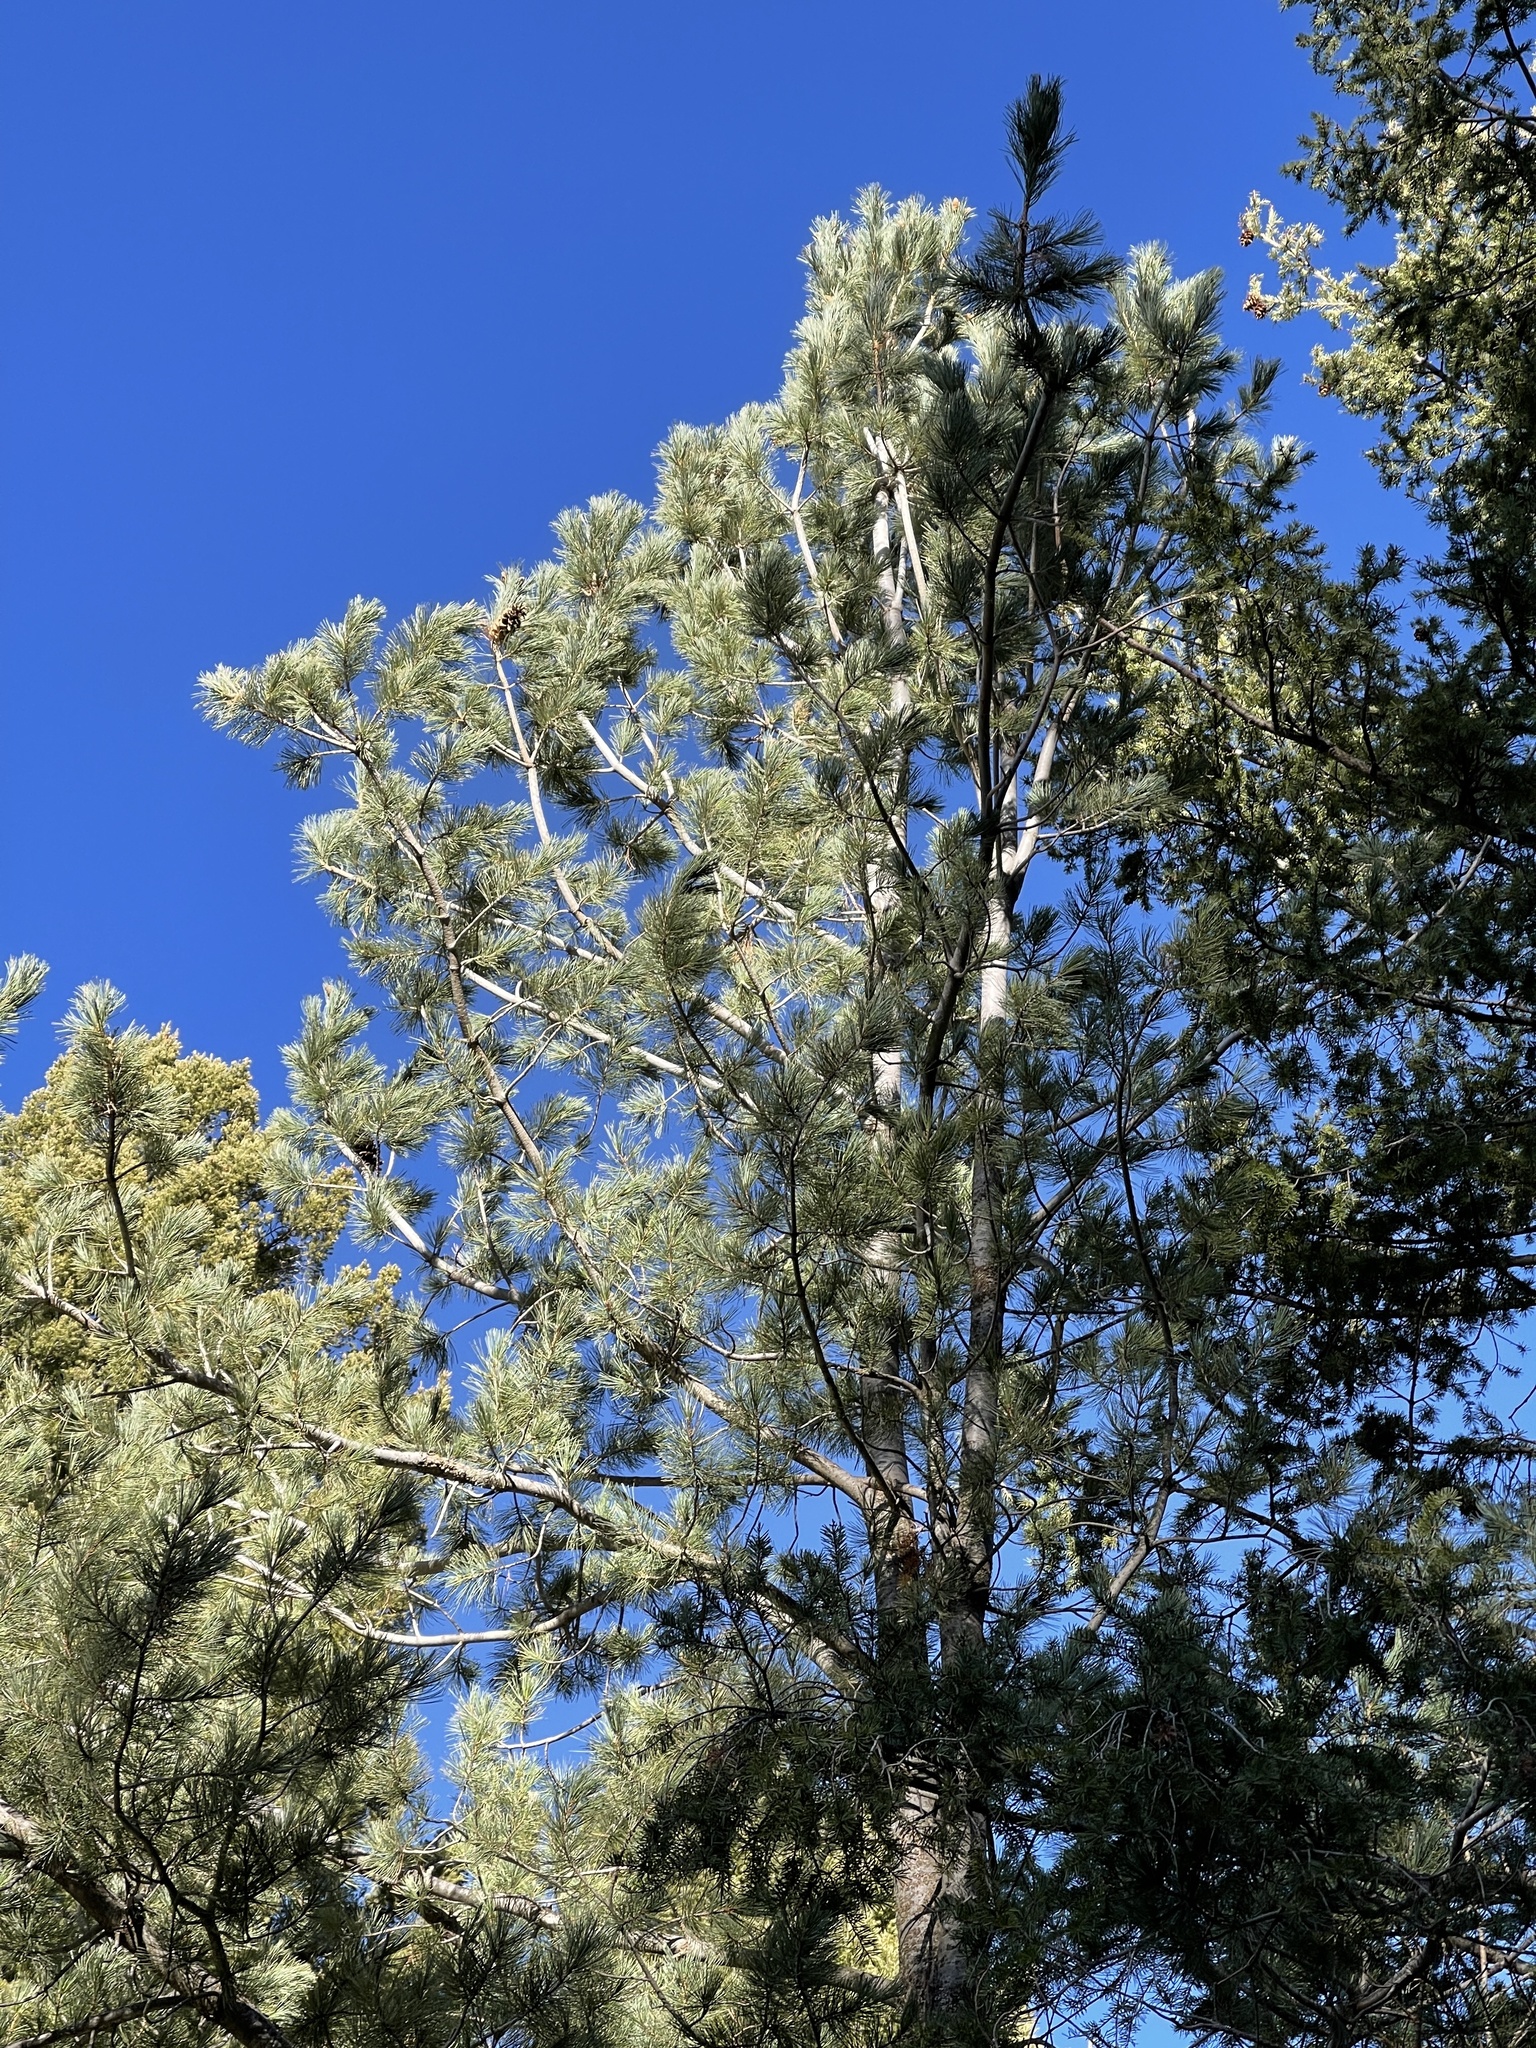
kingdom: Plantae
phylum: Tracheophyta
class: Pinopsida
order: Pinales
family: Pinaceae
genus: Pinus
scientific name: Pinus strobiformis
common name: Southwestern white pine
